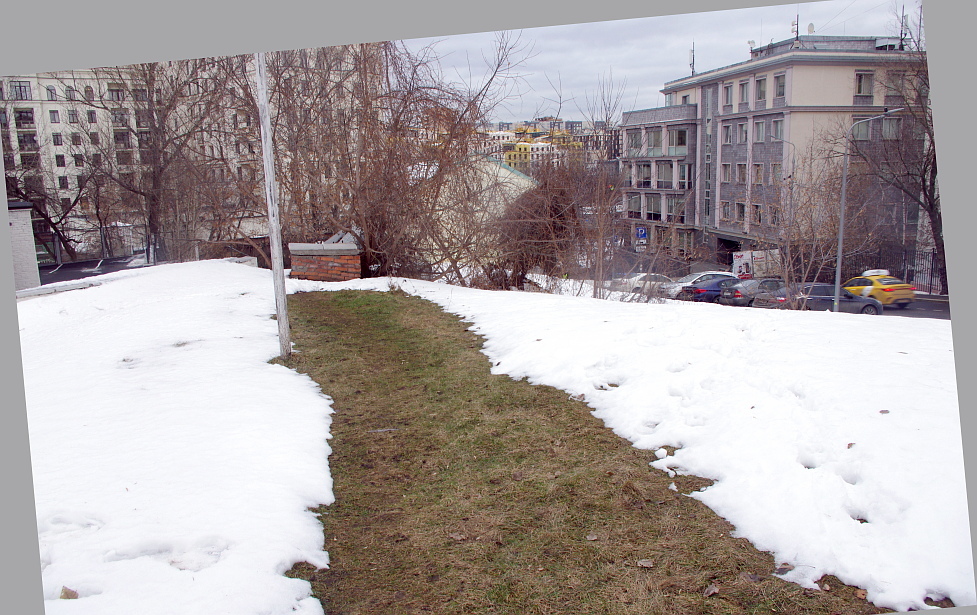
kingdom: Plantae
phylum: Tracheophyta
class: Magnoliopsida
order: Fabales
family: Fabaceae
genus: Medicago
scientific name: Medicago lupulina
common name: Black medick
